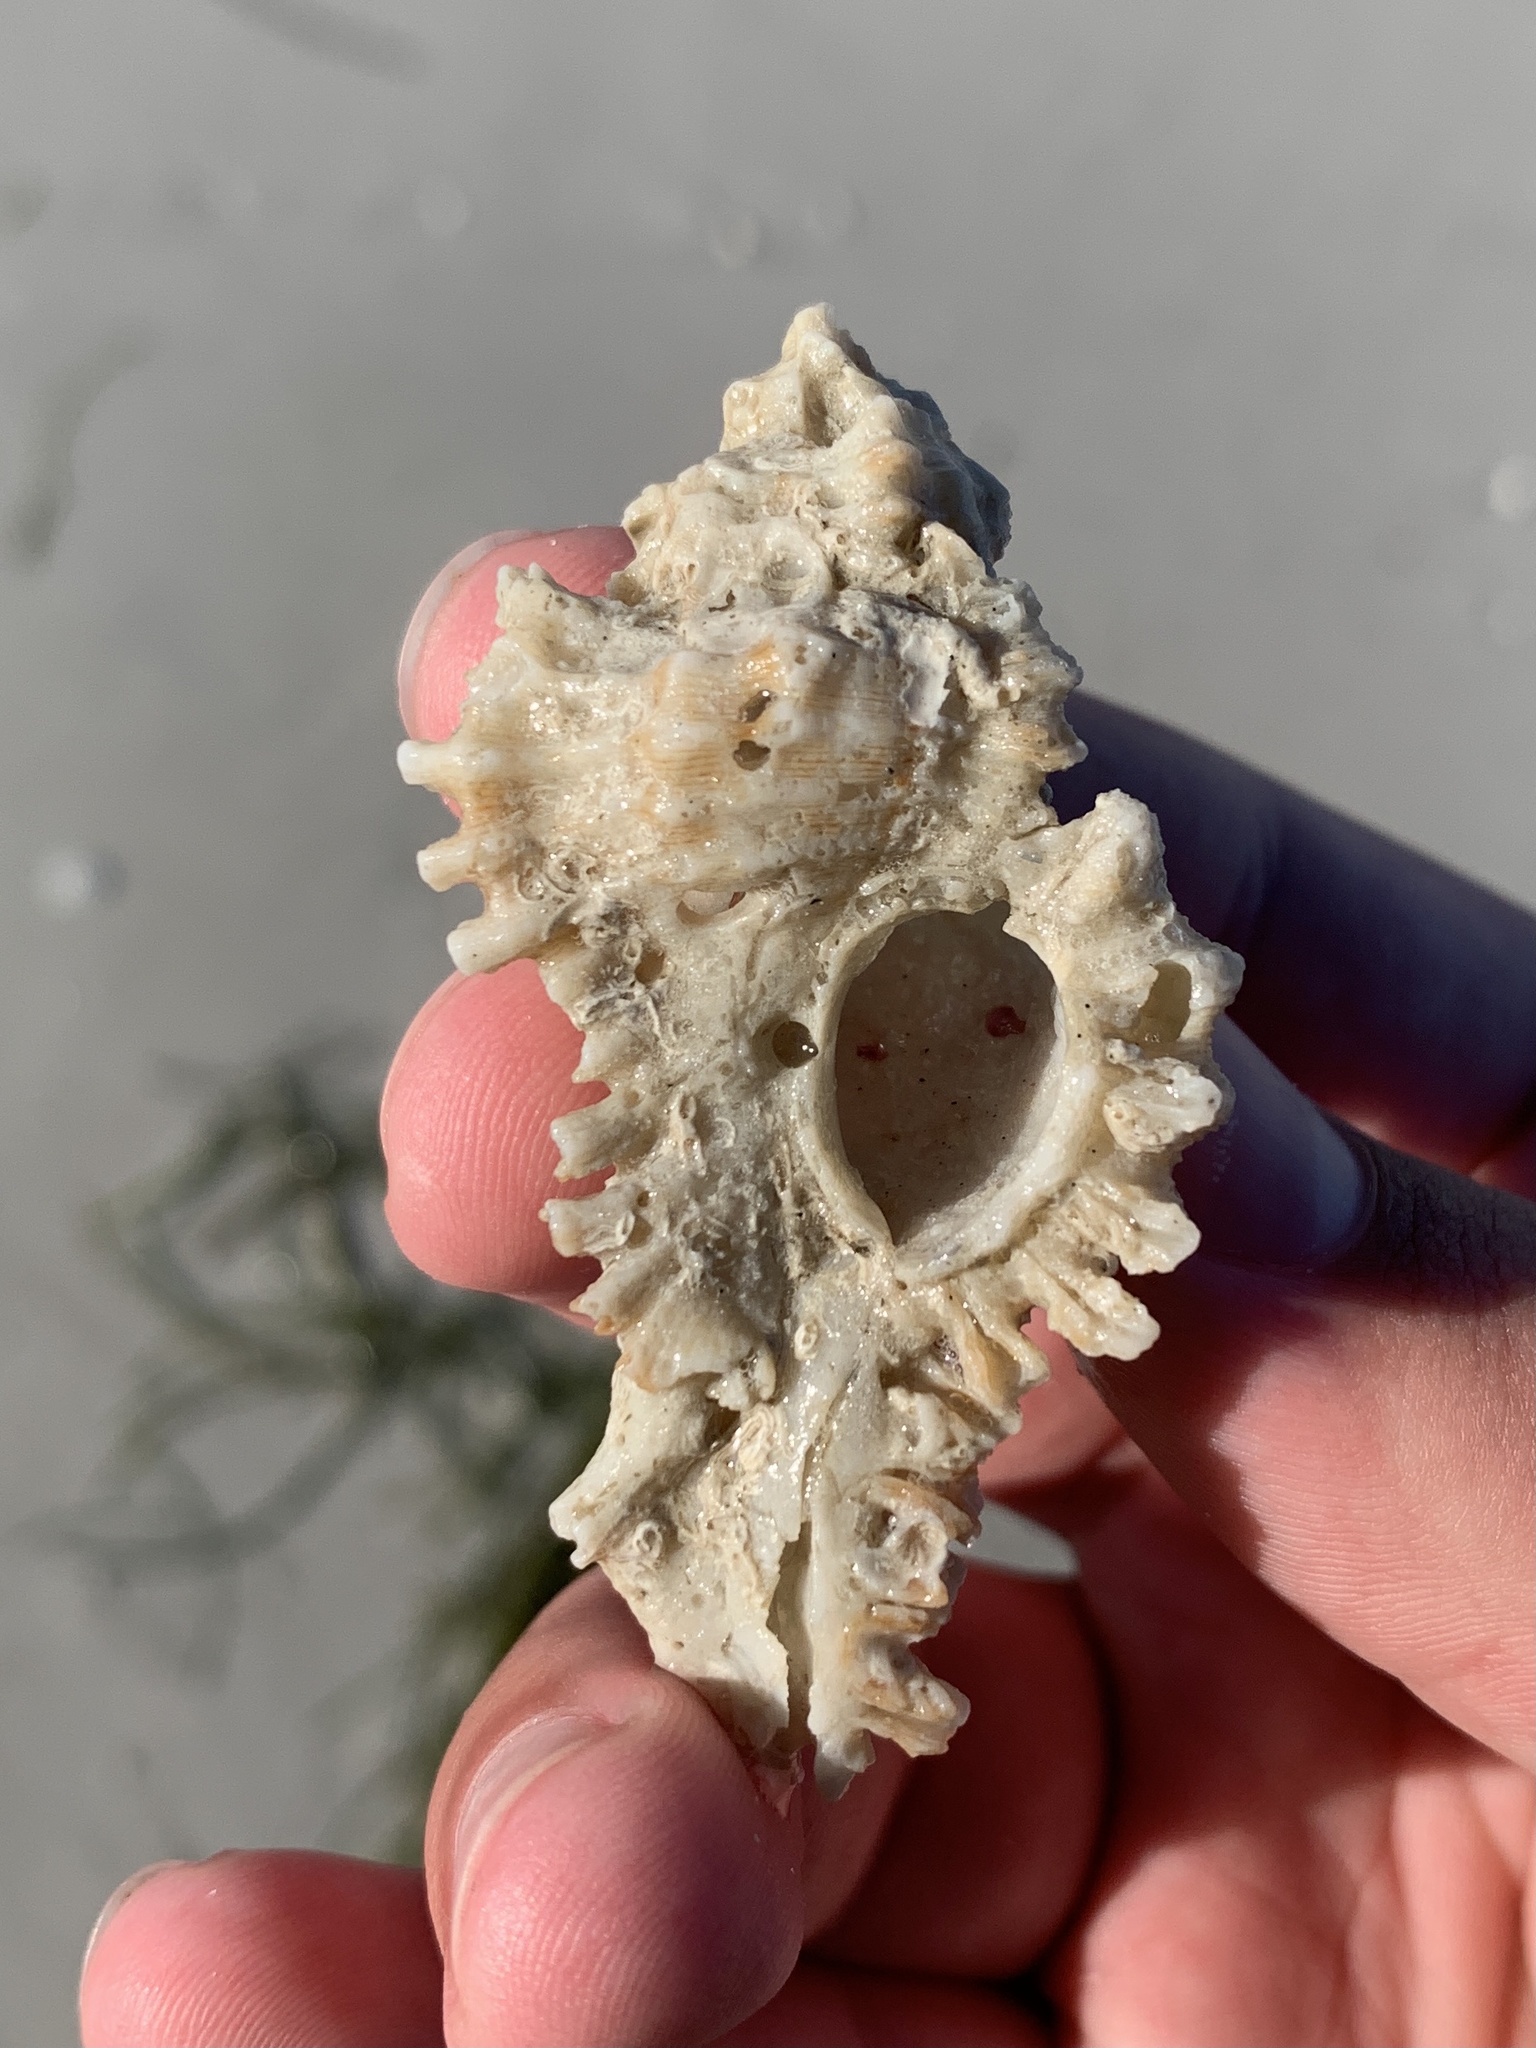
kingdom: Animalia
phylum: Mollusca
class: Gastropoda
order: Neogastropoda
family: Muricidae
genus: Chicoreus
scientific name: Chicoreus florifer
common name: Flowery lace murex
